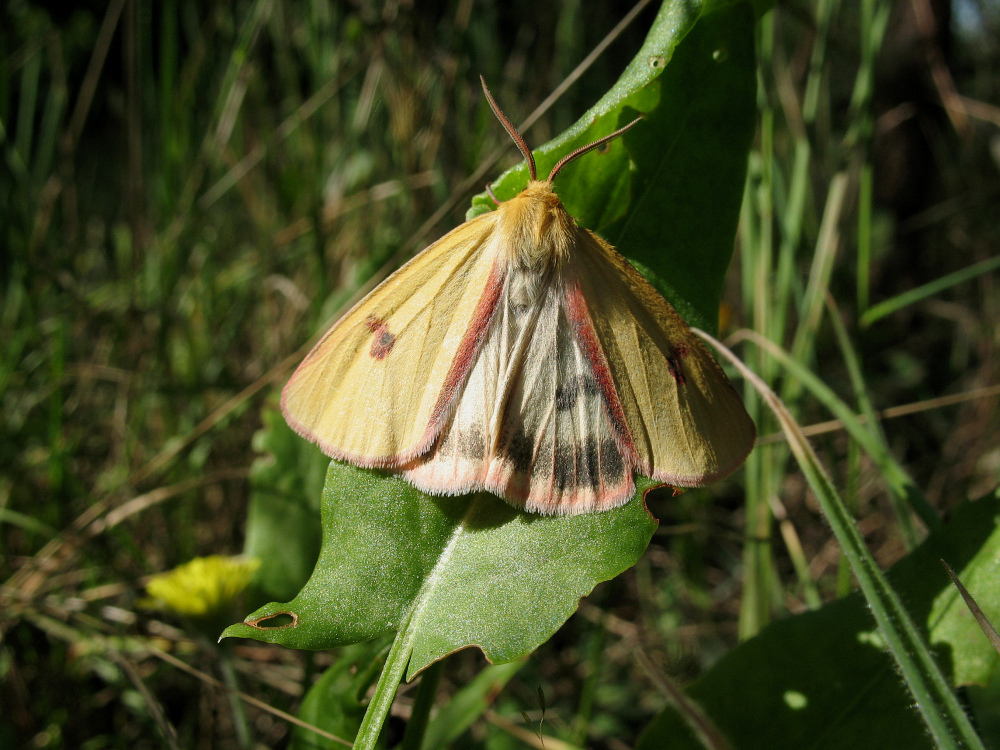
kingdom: Animalia
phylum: Arthropoda
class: Insecta
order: Lepidoptera
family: Erebidae
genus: Diacrisia
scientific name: Diacrisia sannio
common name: Clouded buff
